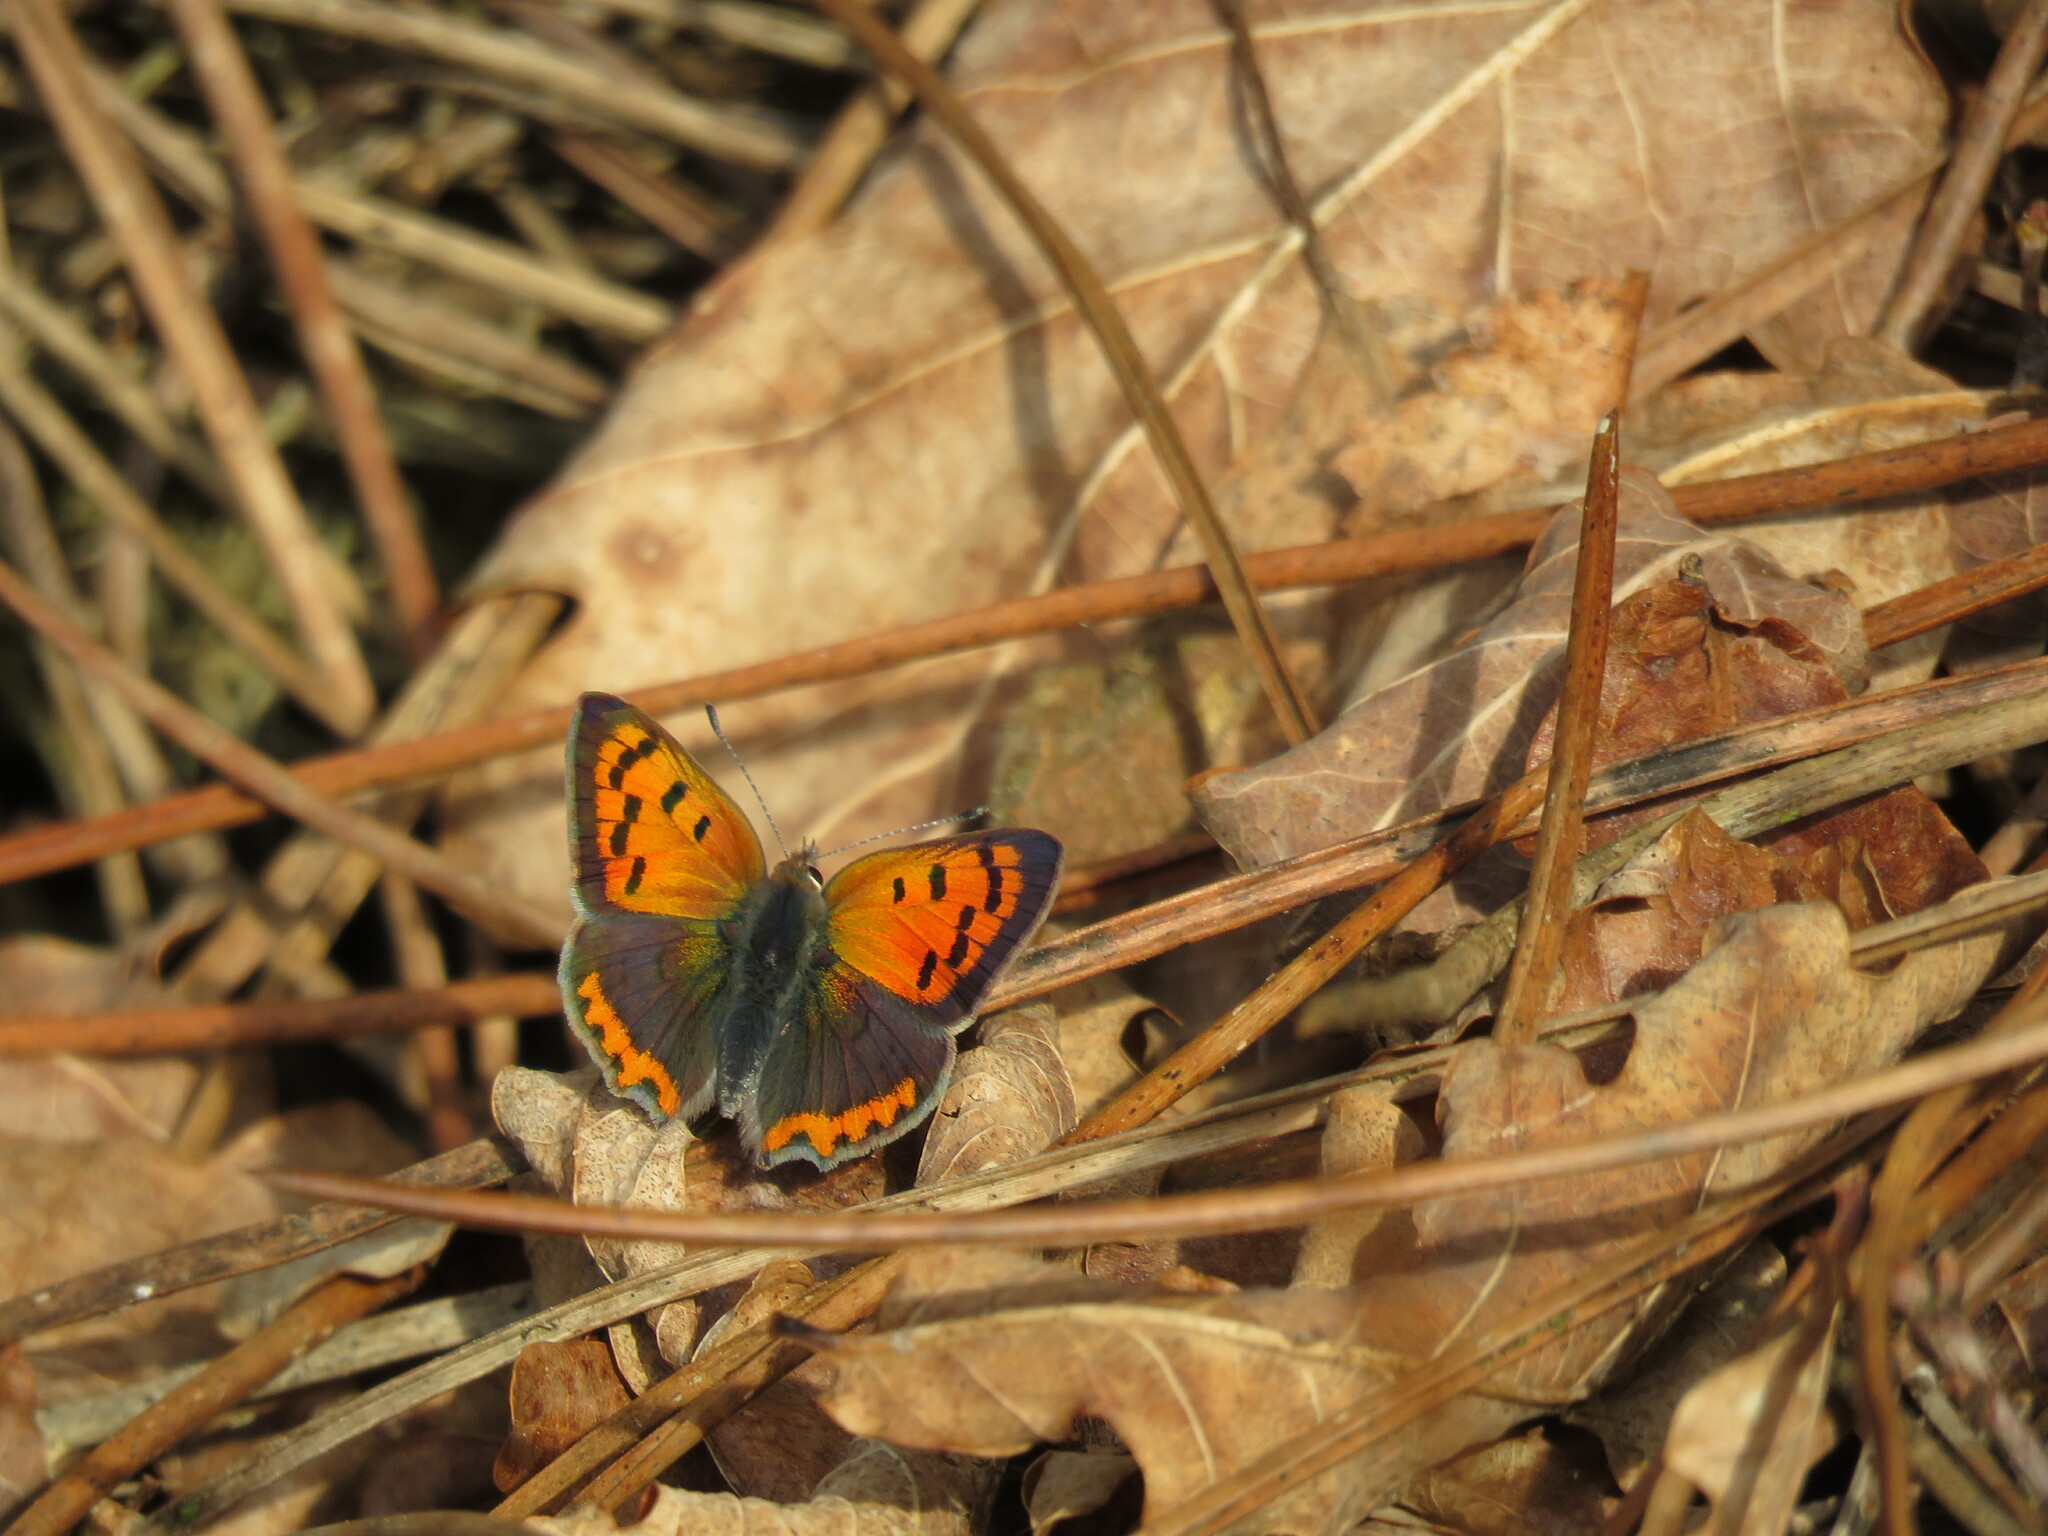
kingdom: Animalia
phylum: Arthropoda
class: Insecta
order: Lepidoptera
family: Lycaenidae
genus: Lycaena
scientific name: Lycaena phlaeas
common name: Small copper
